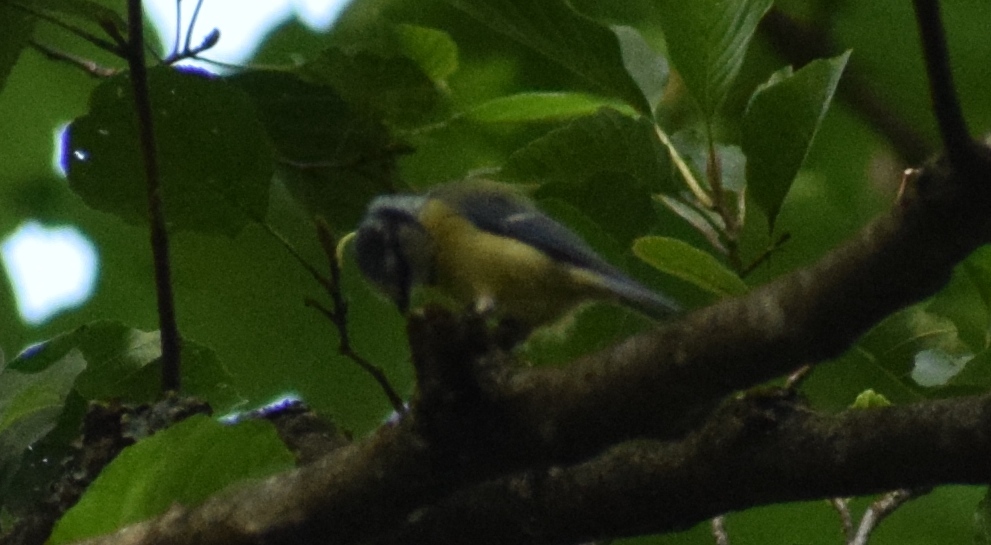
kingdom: Animalia
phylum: Chordata
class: Aves
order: Passeriformes
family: Paridae
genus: Cyanistes
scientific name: Cyanistes caeruleus
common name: Eurasian blue tit
